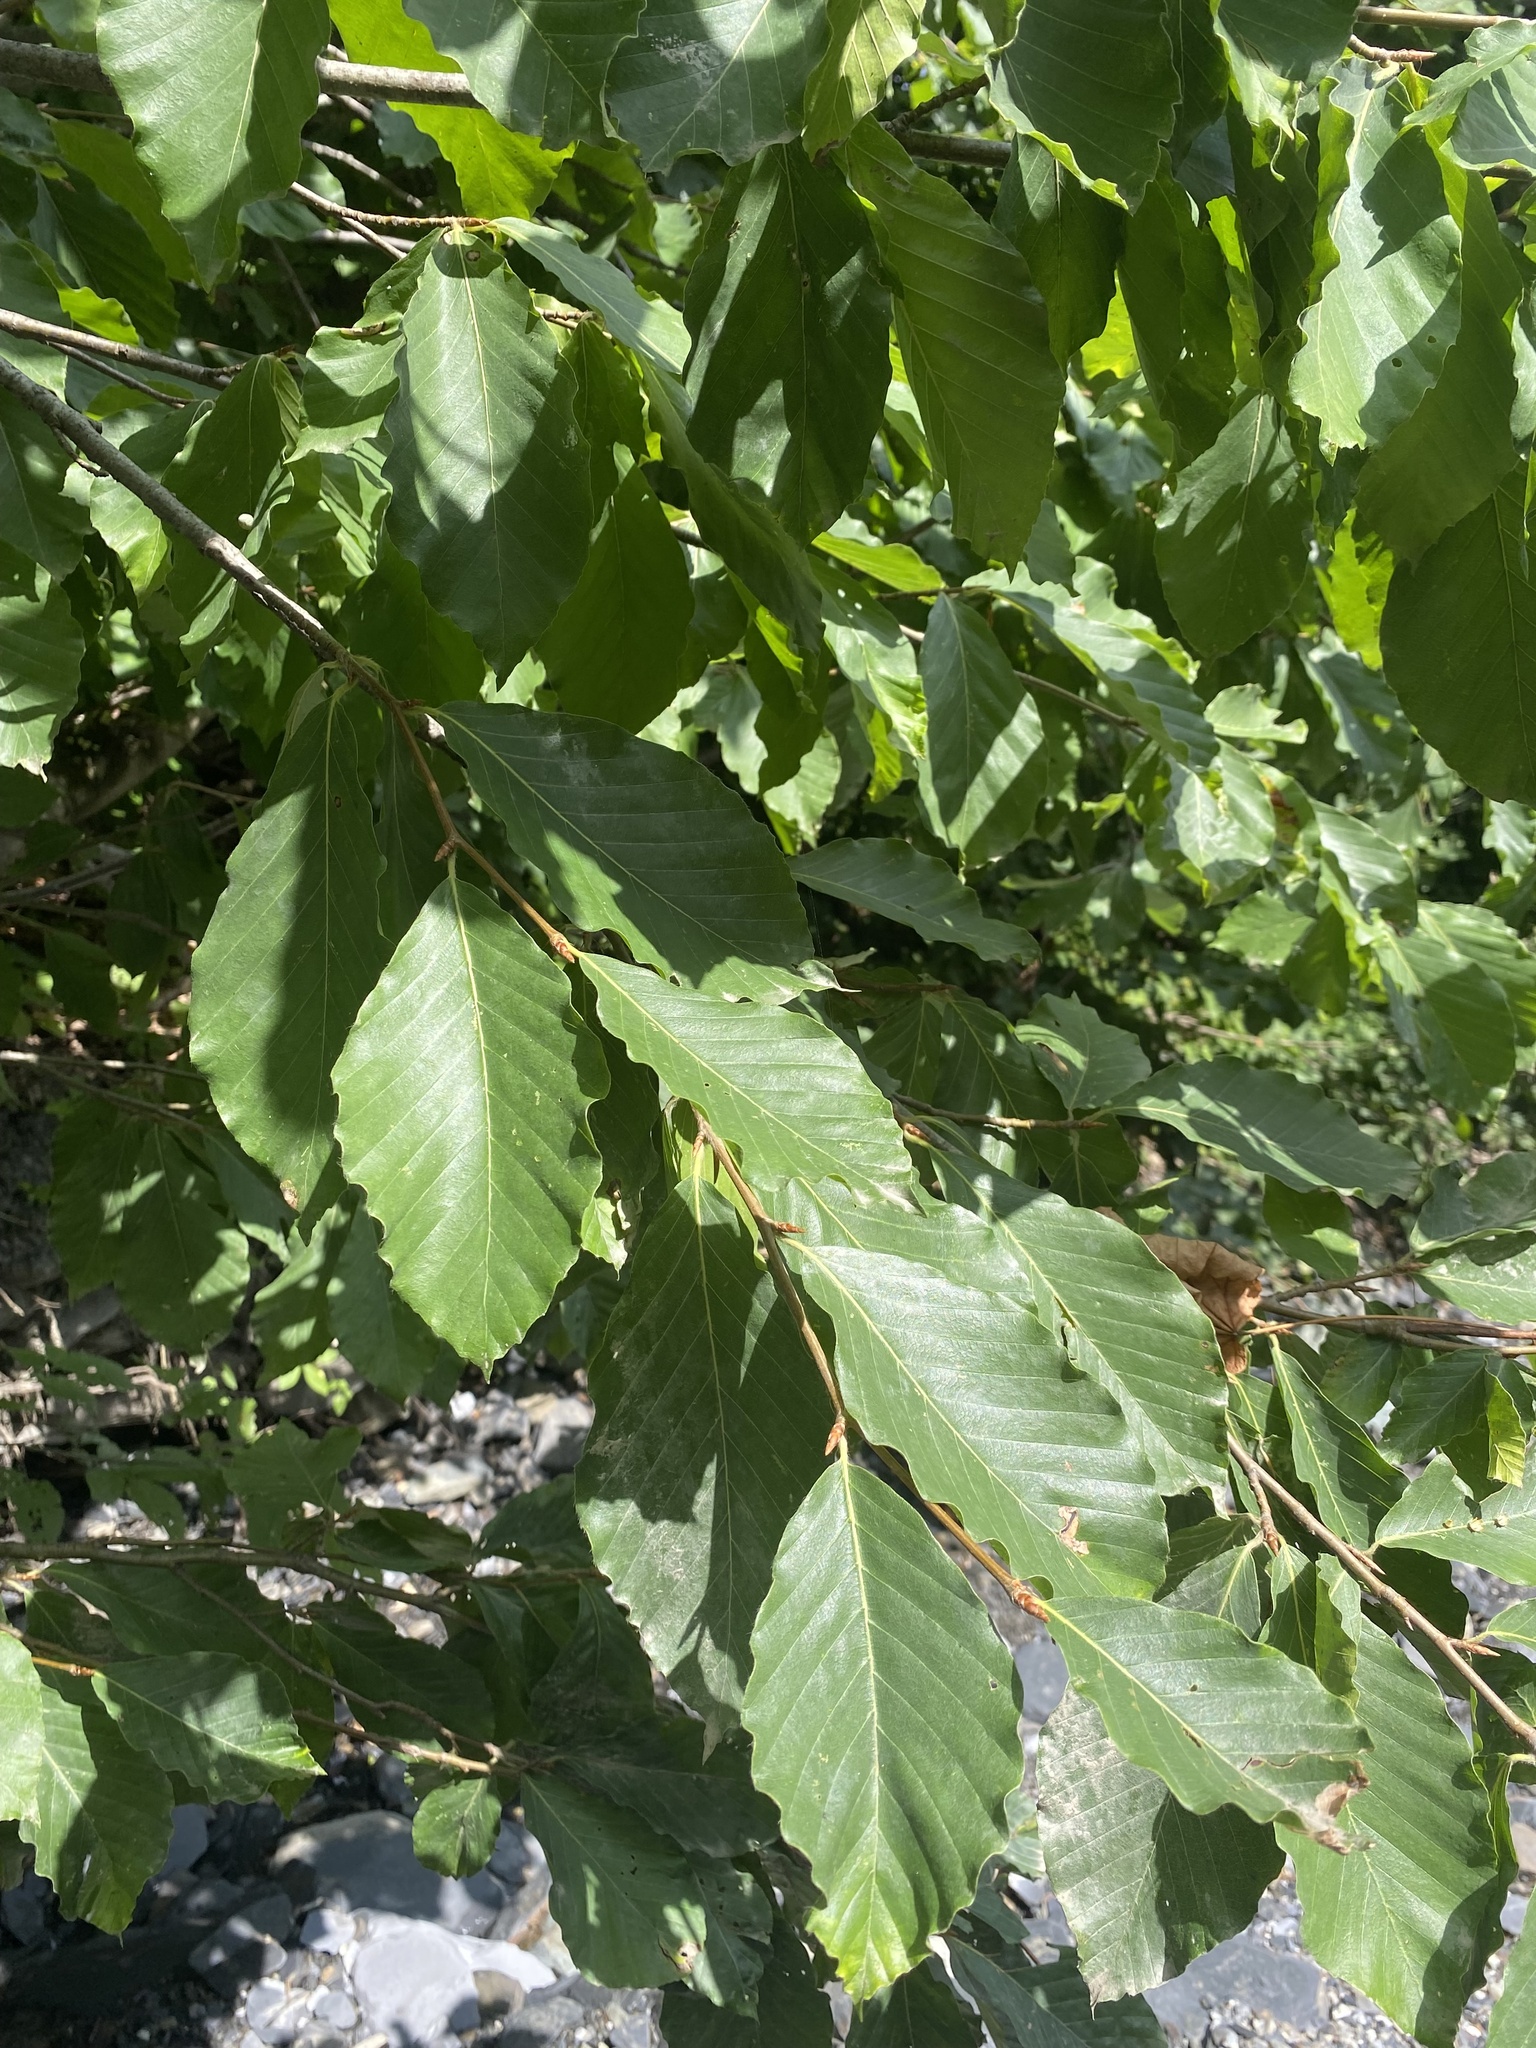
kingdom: Plantae
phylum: Tracheophyta
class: Magnoliopsida
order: Fagales
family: Fagaceae
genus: Fagus
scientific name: Fagus orientalis
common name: Oriental beech
